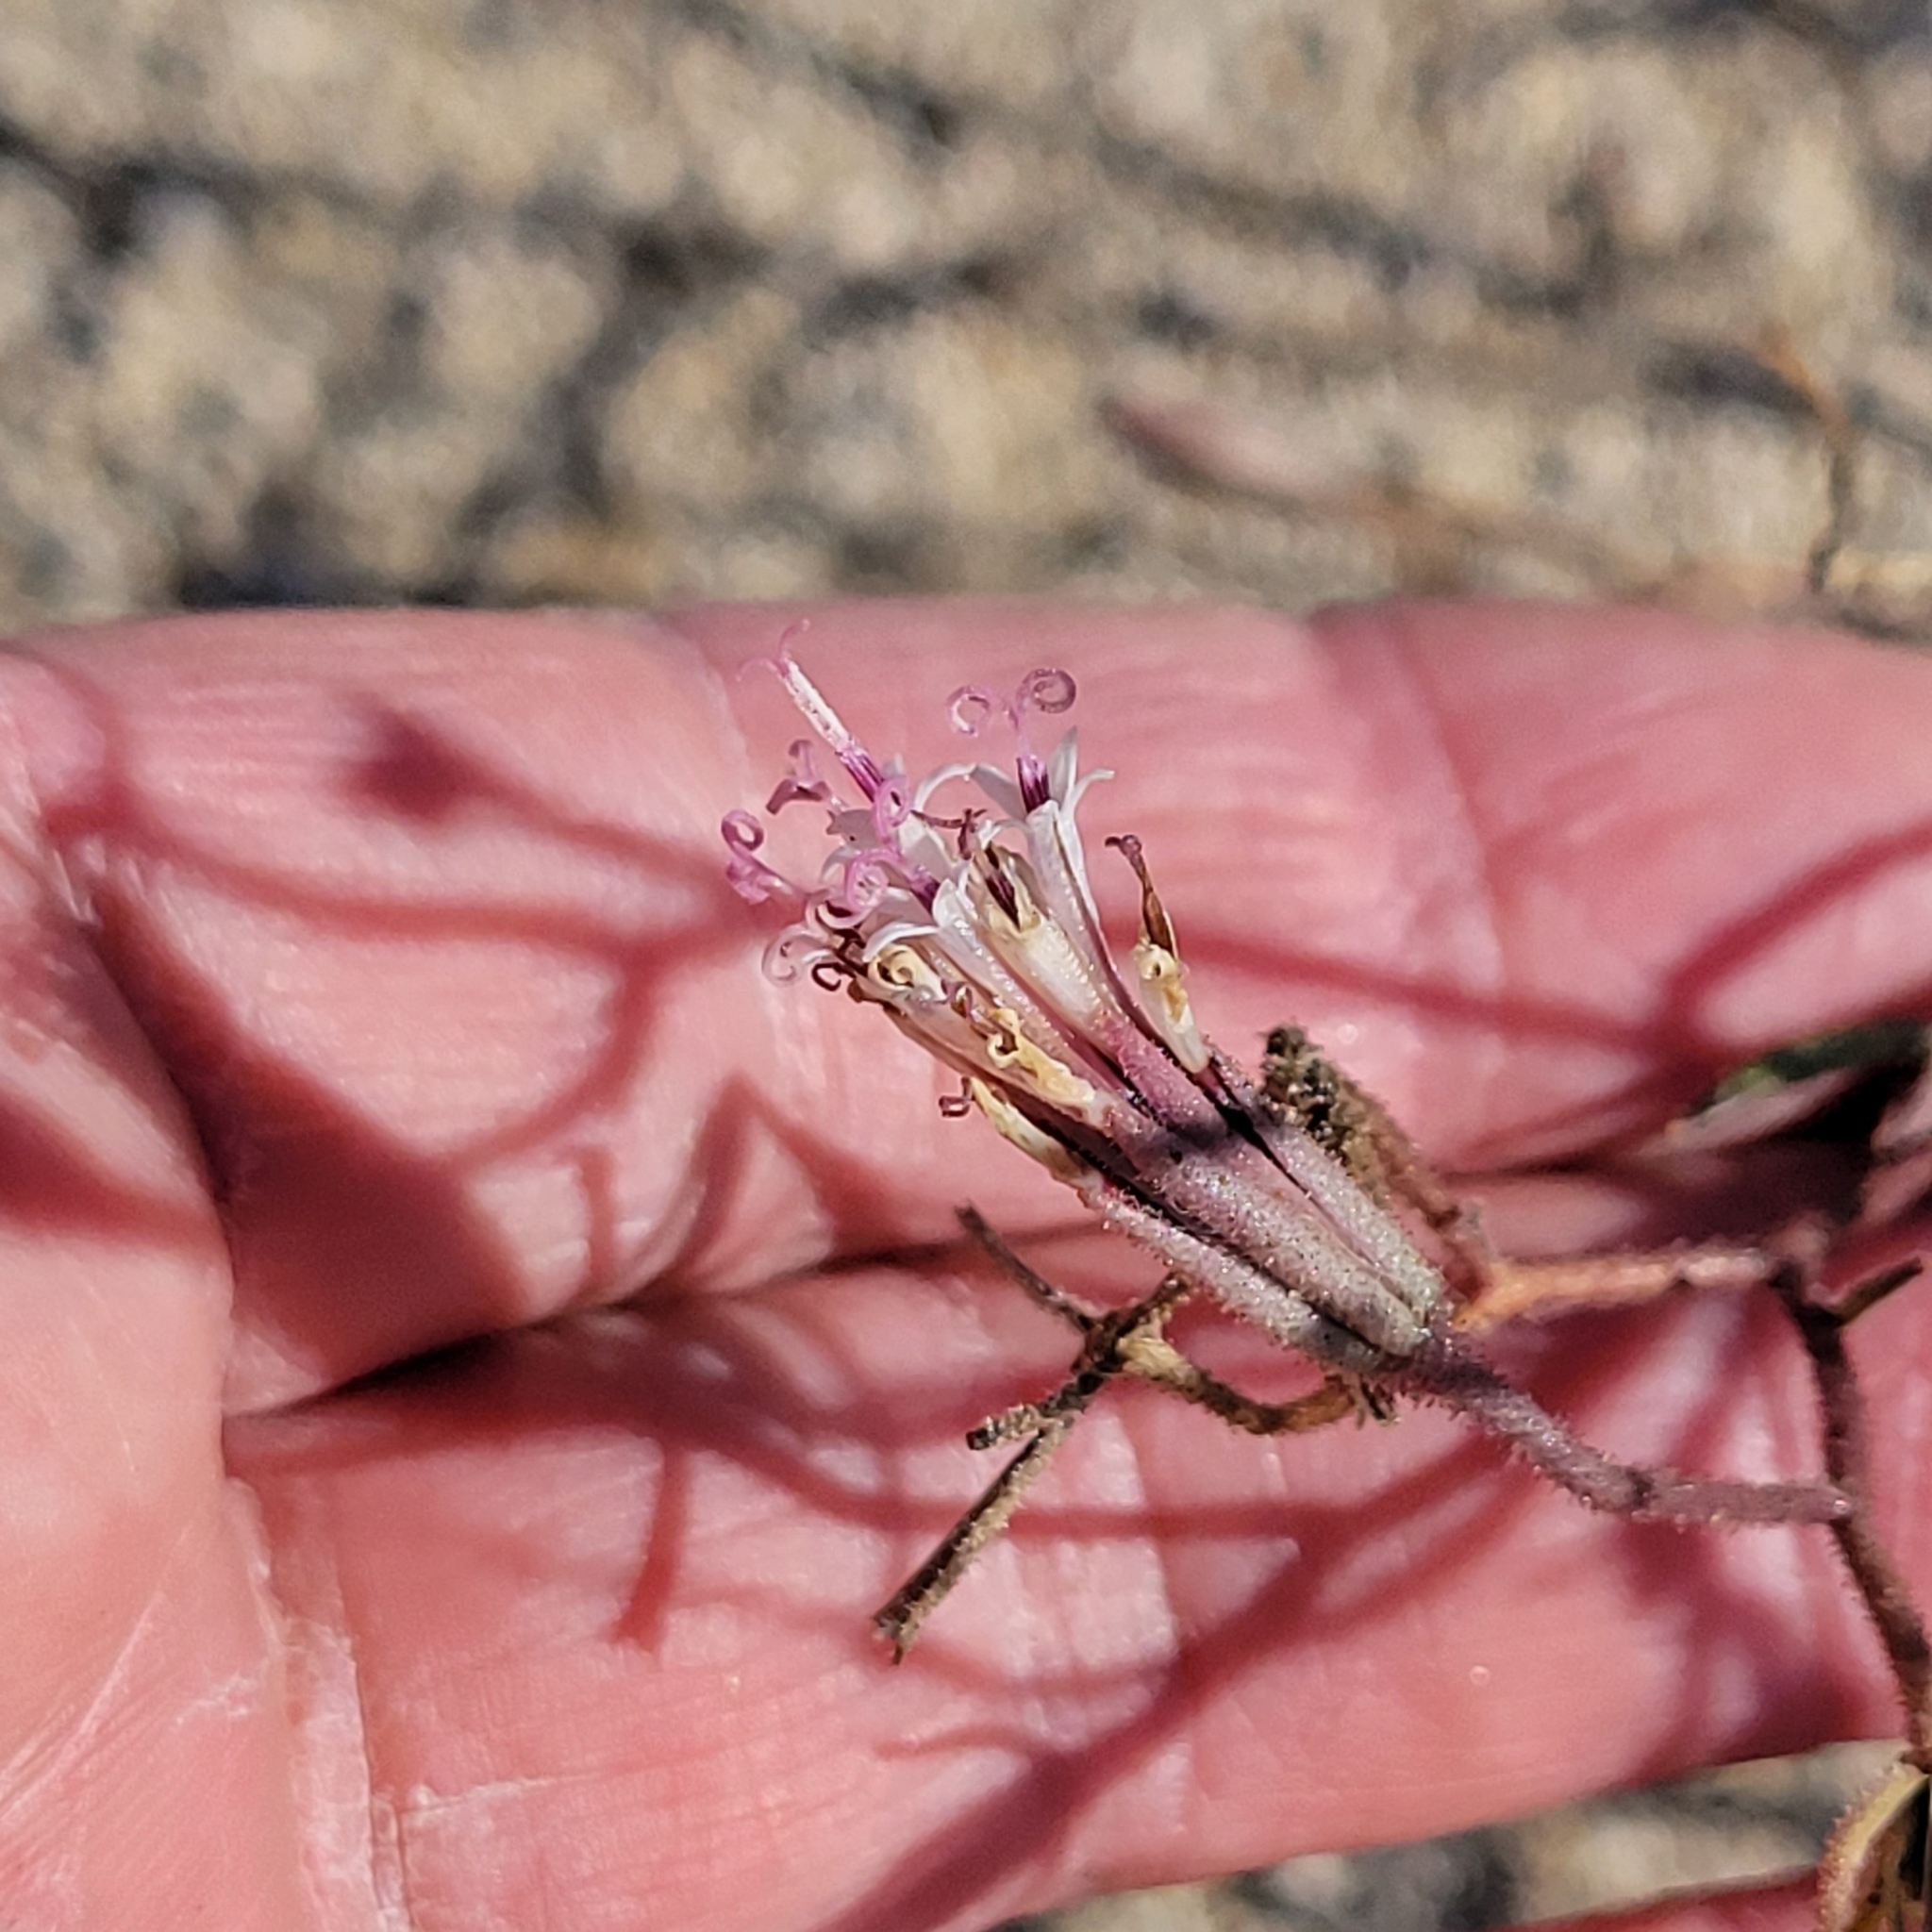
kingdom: Plantae
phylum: Tracheophyta
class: Magnoliopsida
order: Asterales
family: Asteraceae
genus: Palafoxia
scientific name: Palafoxia arida
